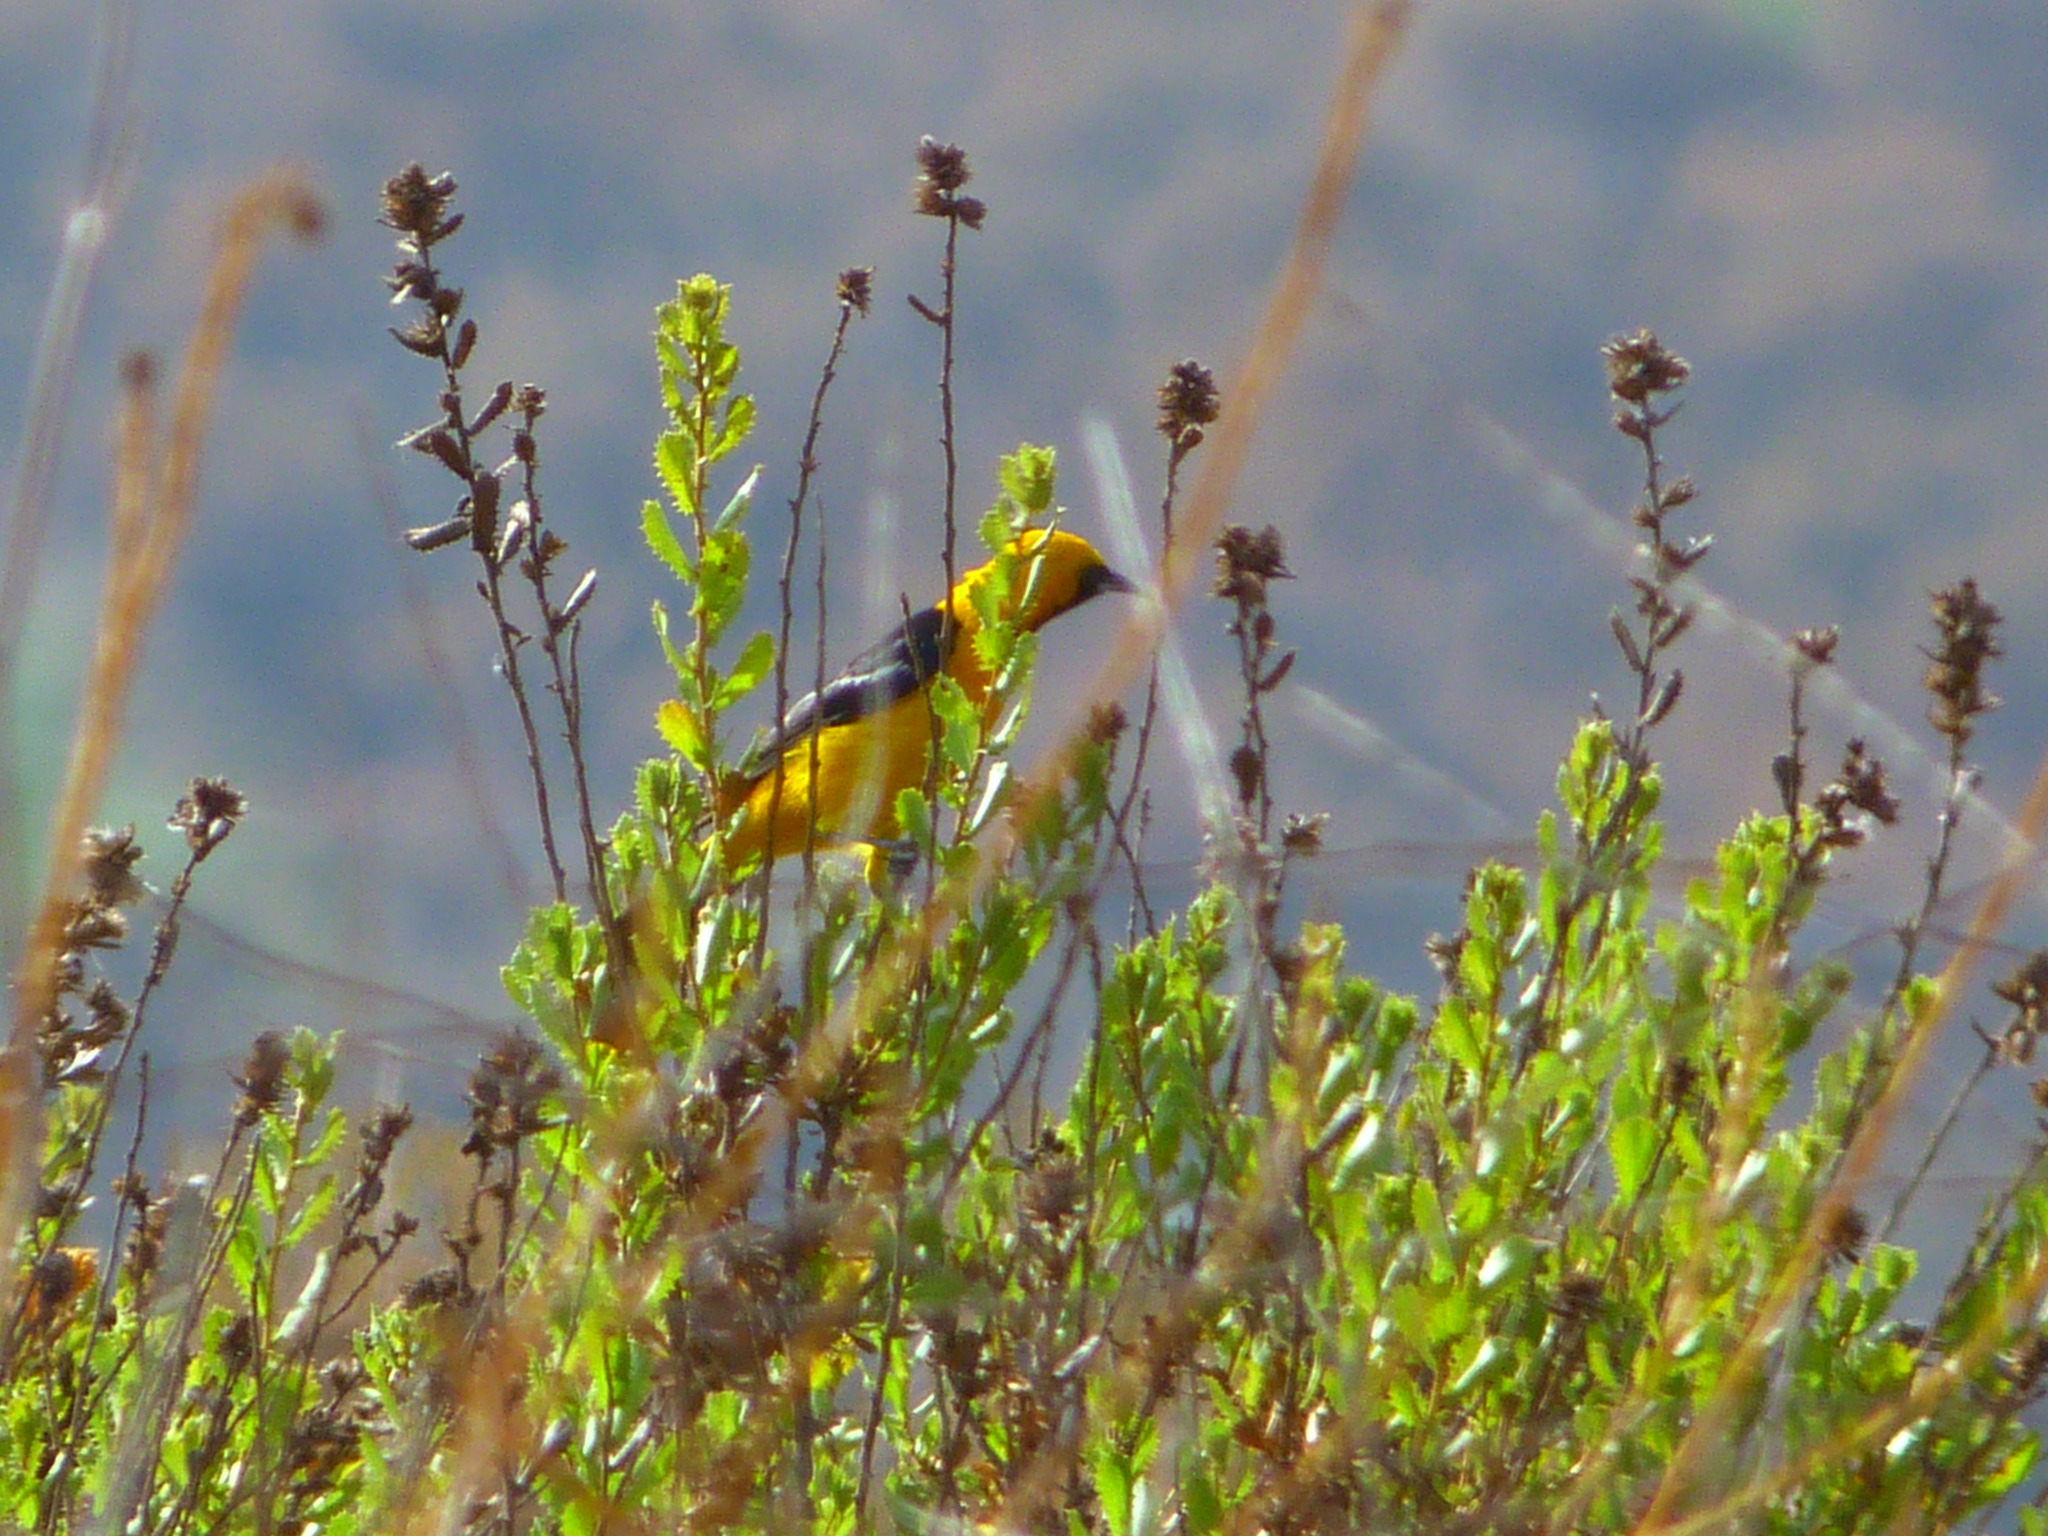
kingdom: Animalia
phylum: Chordata
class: Aves
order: Passeriformes
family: Icteridae
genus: Icterus
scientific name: Icterus cucullatus
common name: Hooded oriole
